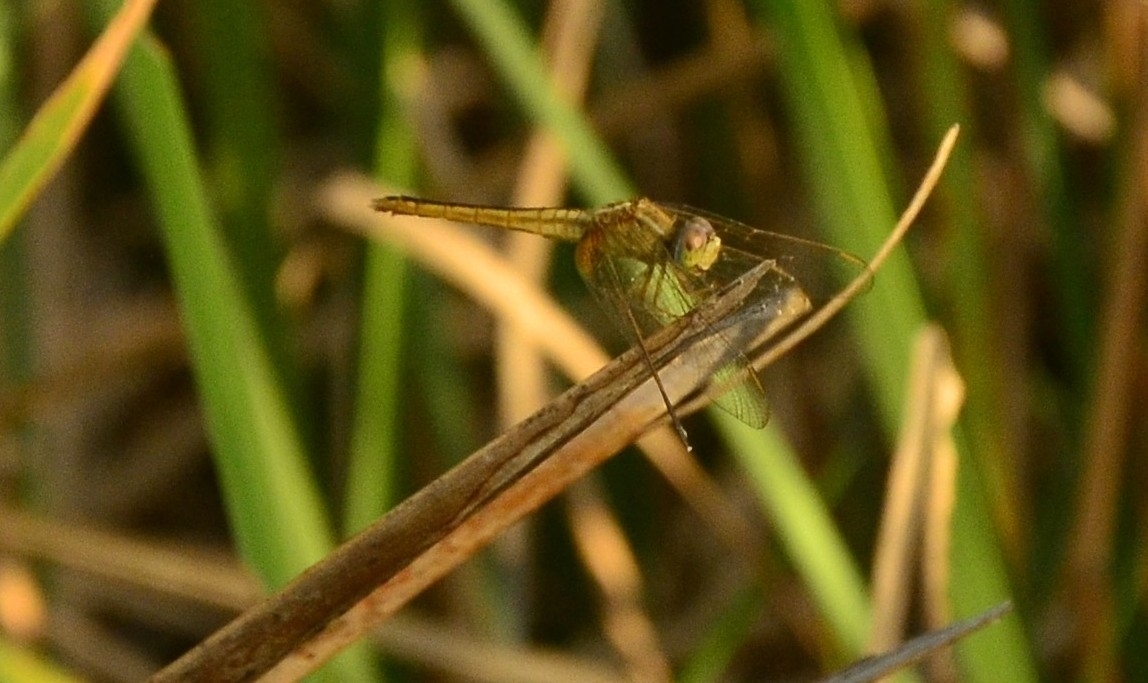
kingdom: Animalia
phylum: Arthropoda
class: Insecta
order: Odonata
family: Libellulidae
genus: Crocothemis
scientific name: Crocothemis servilia
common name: Scarlet skimmer
